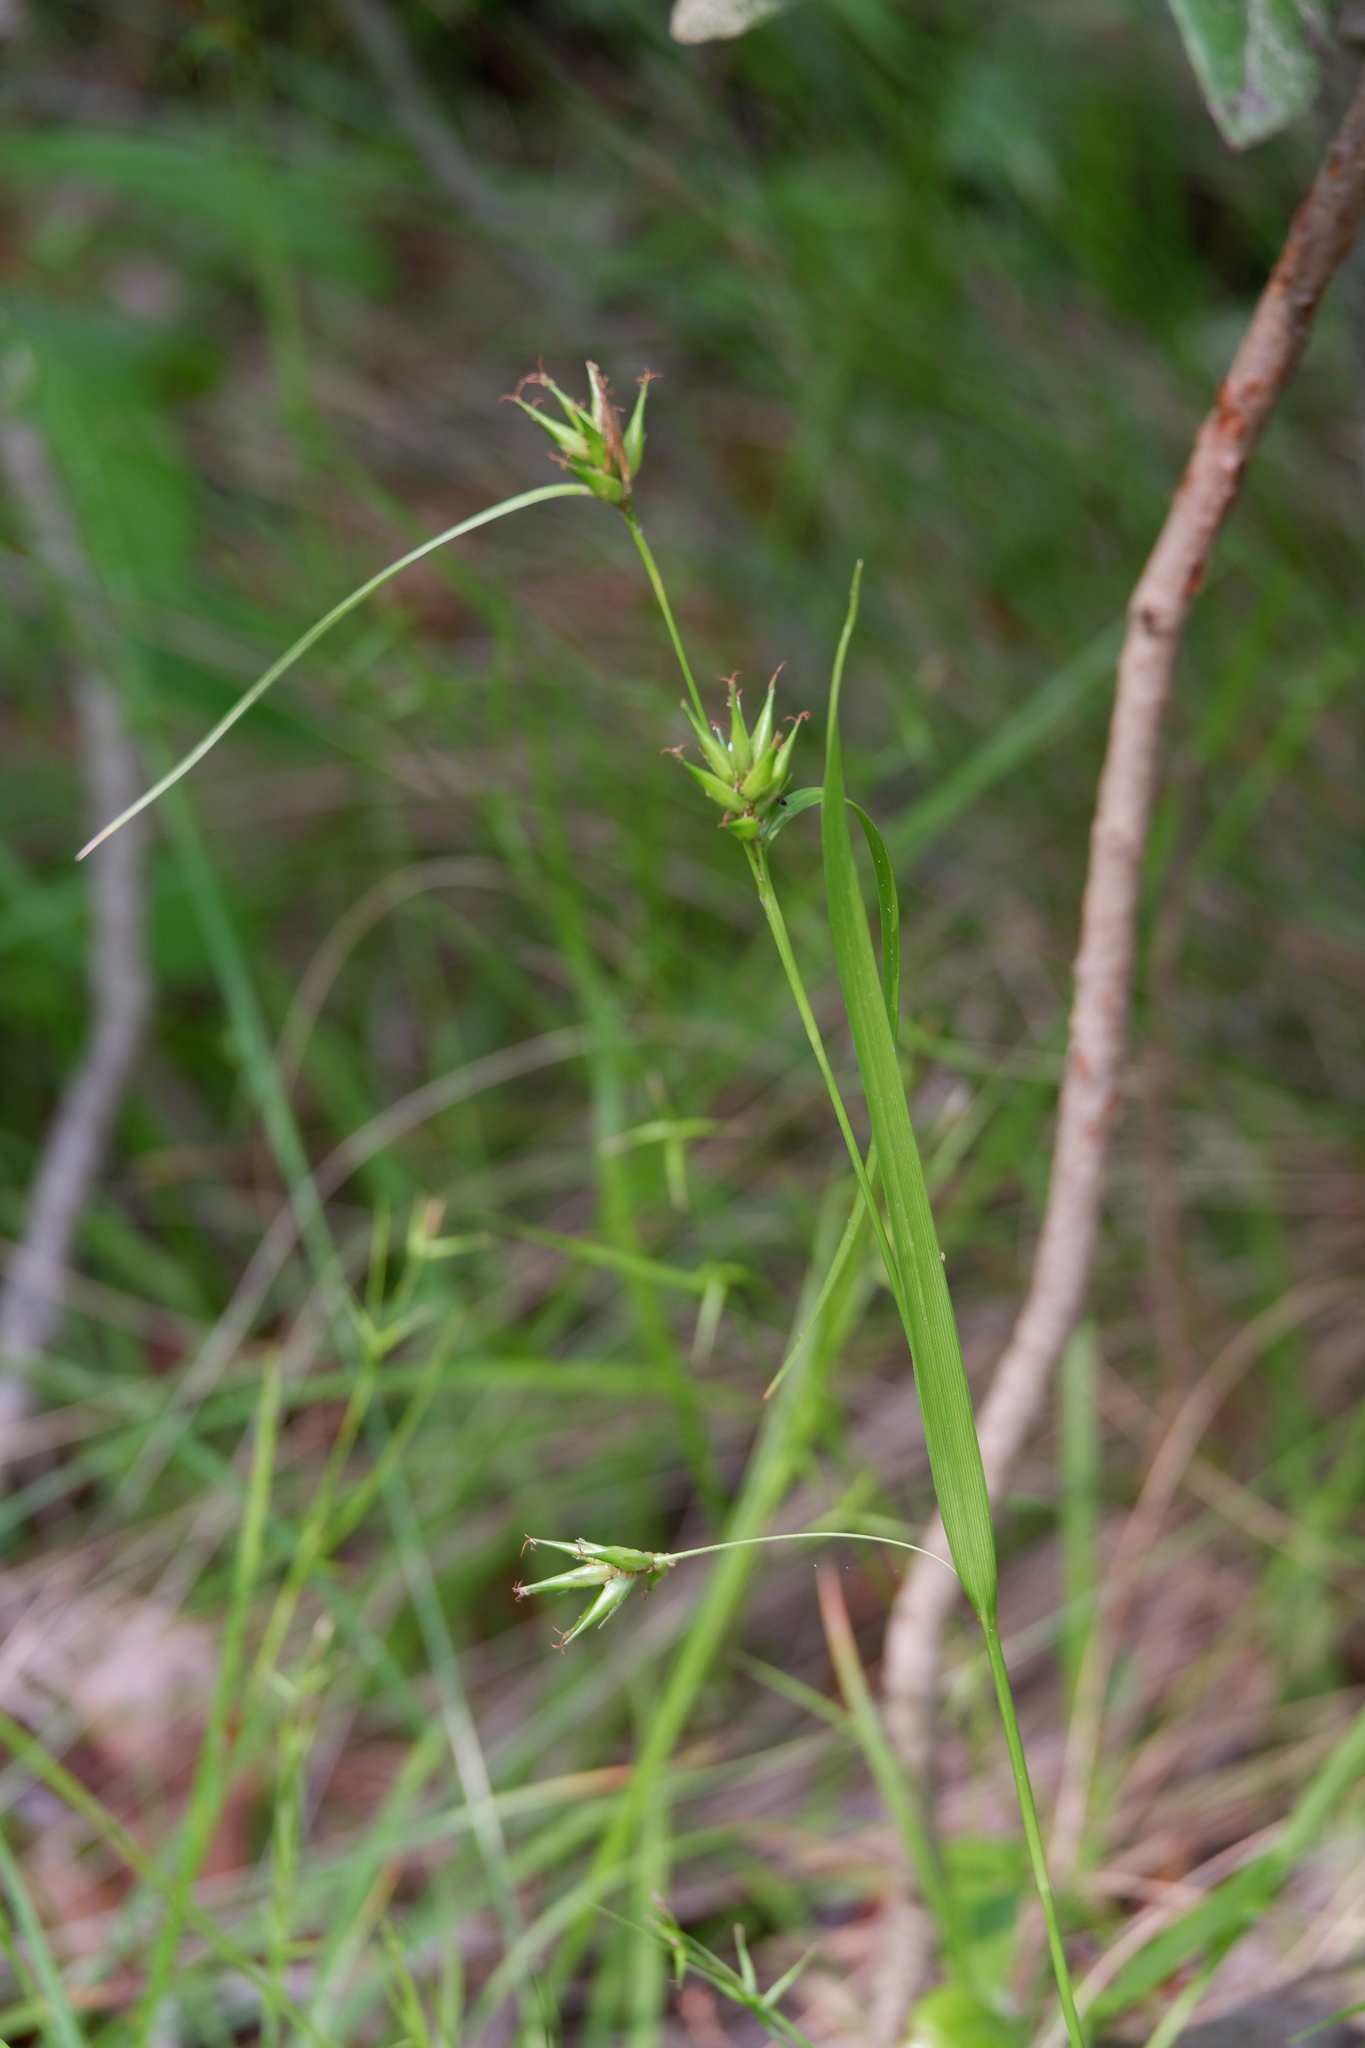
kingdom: Plantae
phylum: Tracheophyta
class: Liliopsida
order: Poales
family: Cyperaceae
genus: Carex
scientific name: Carex folliculata
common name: Northern long sedge
